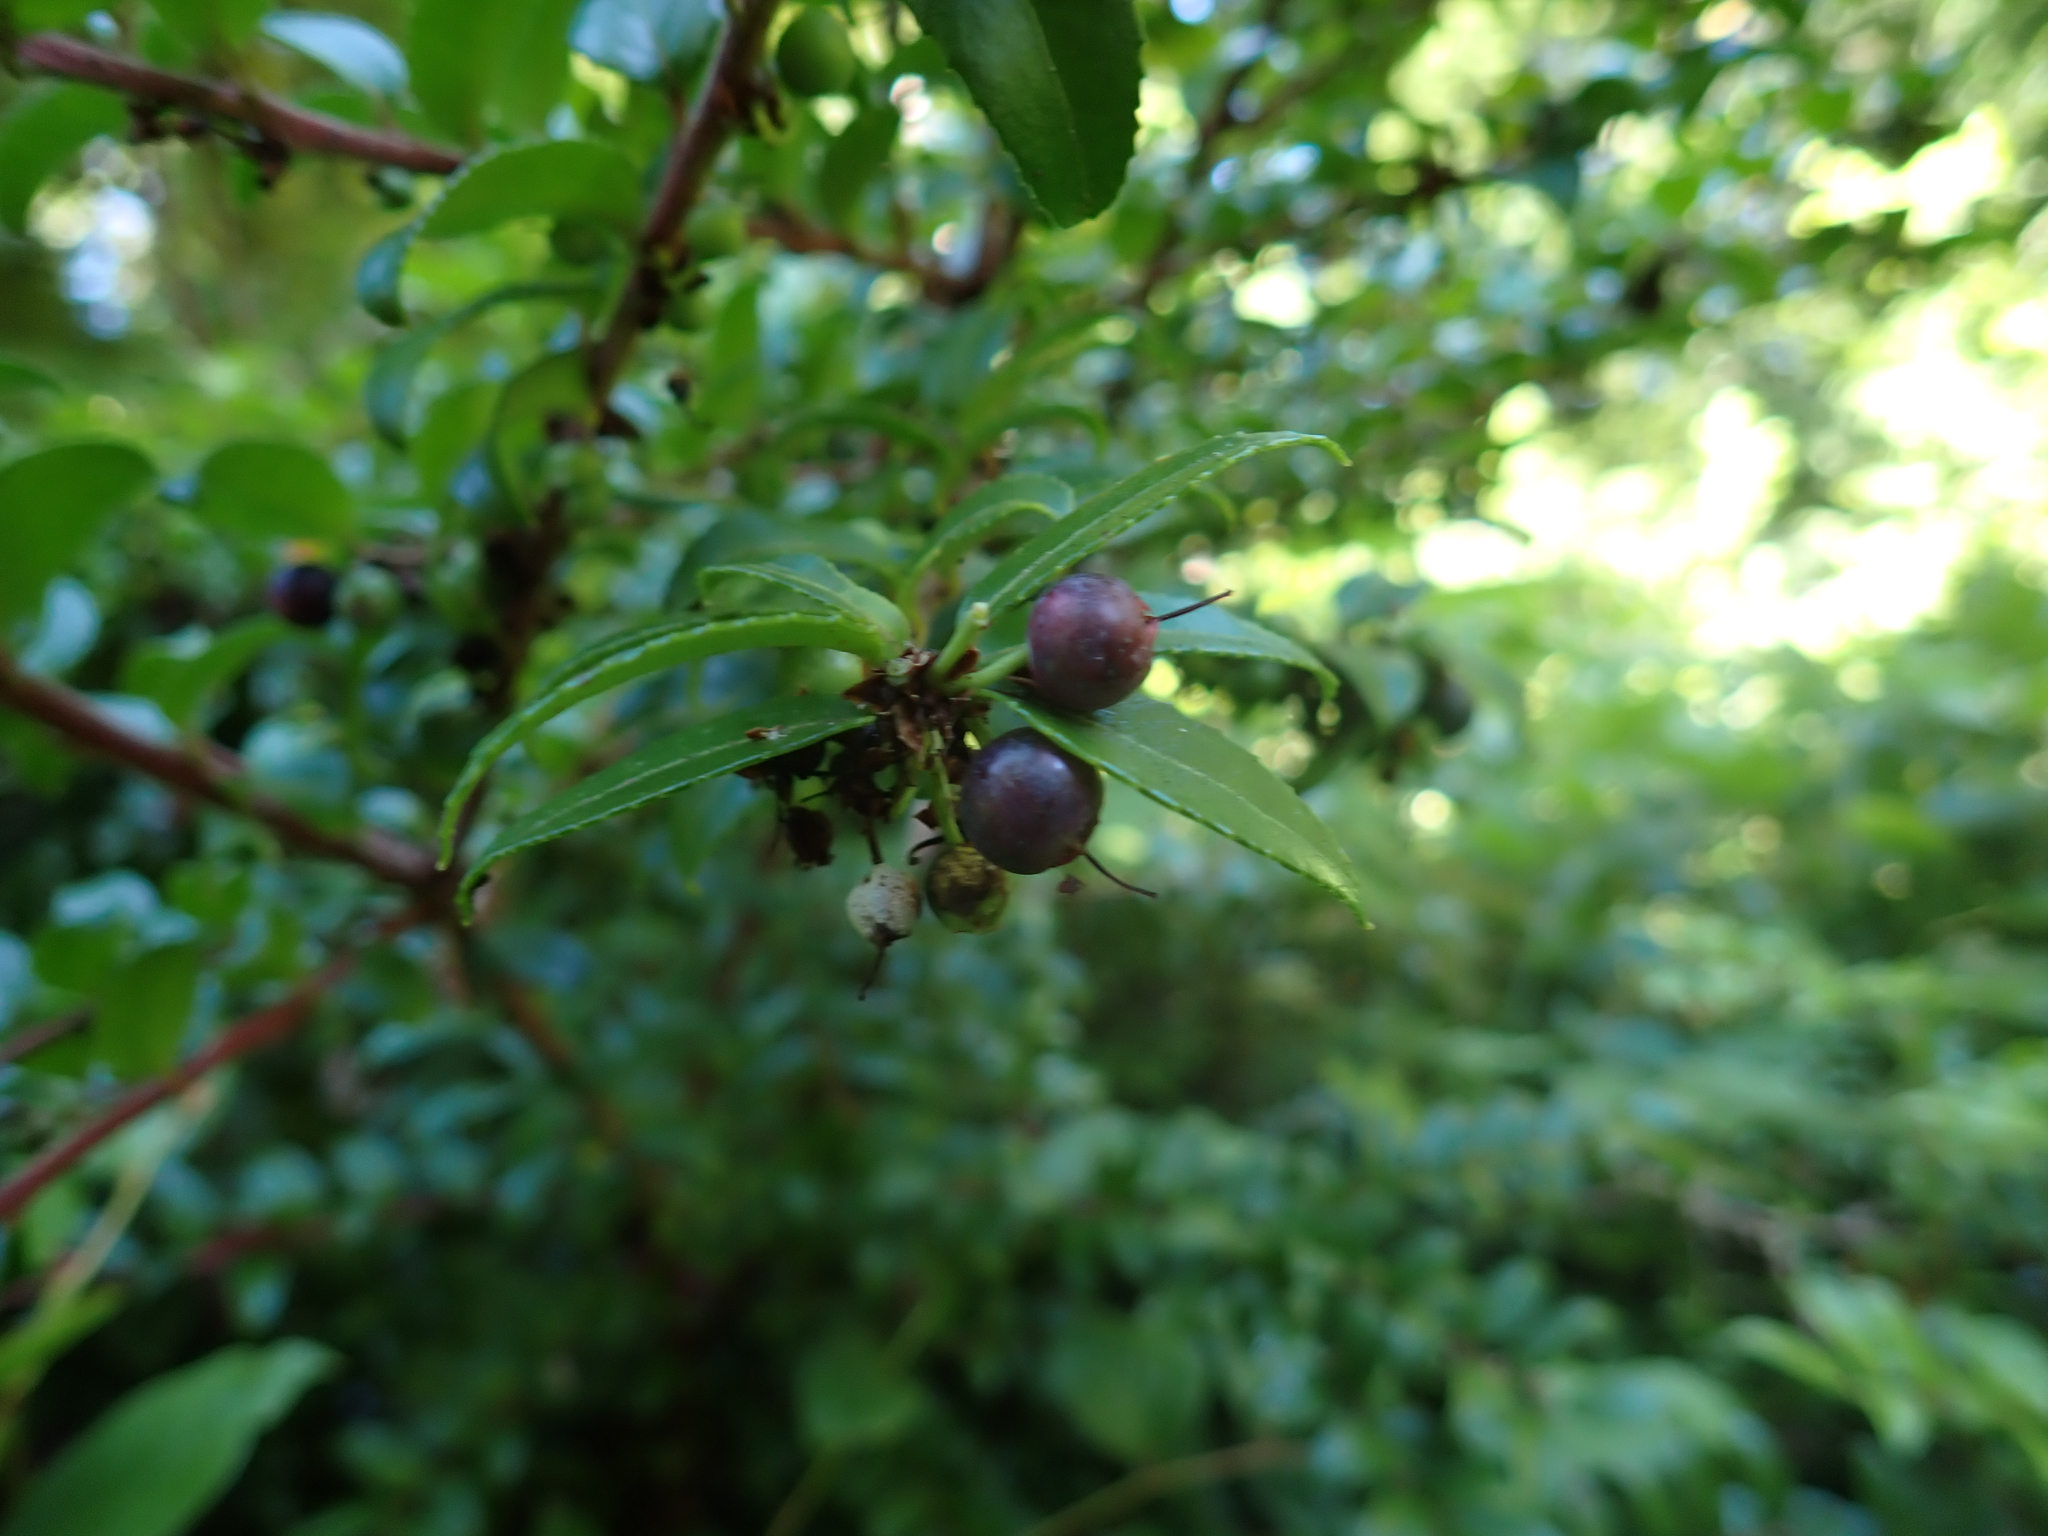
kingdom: Plantae
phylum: Tracheophyta
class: Magnoliopsida
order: Ericales
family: Ericaceae
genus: Vaccinium
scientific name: Vaccinium ovatum
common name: California-huckleberry
